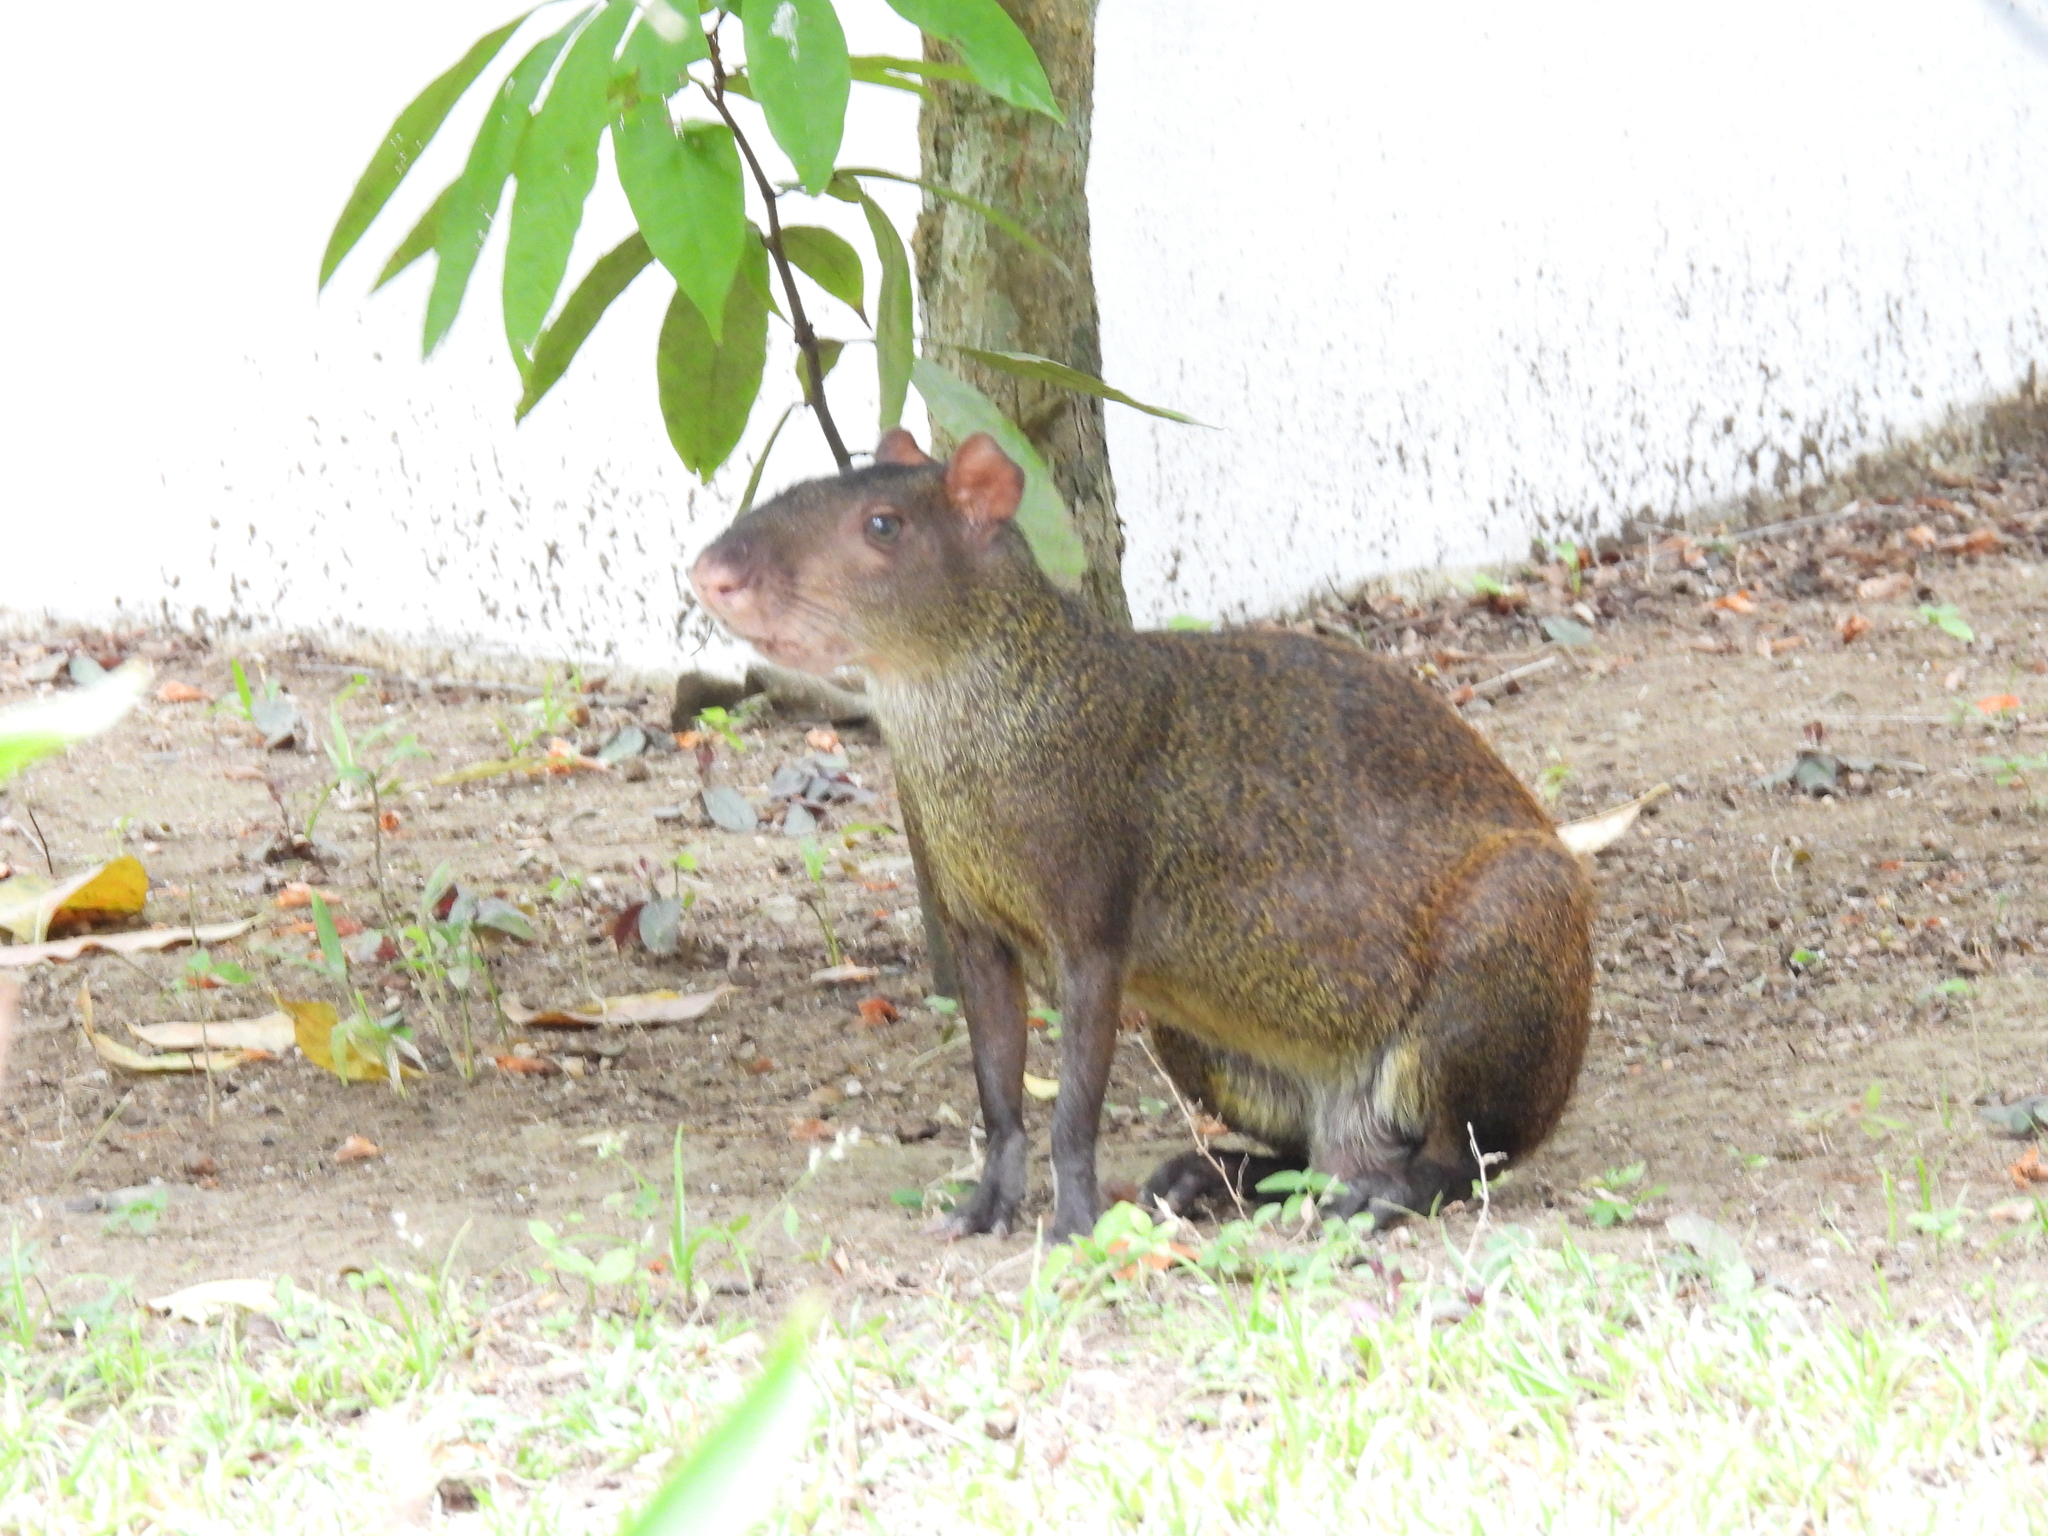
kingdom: Animalia
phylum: Chordata
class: Mammalia
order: Rodentia
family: Dasyproctidae
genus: Dasyprocta
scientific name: Dasyprocta punctata
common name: Central american agouti
